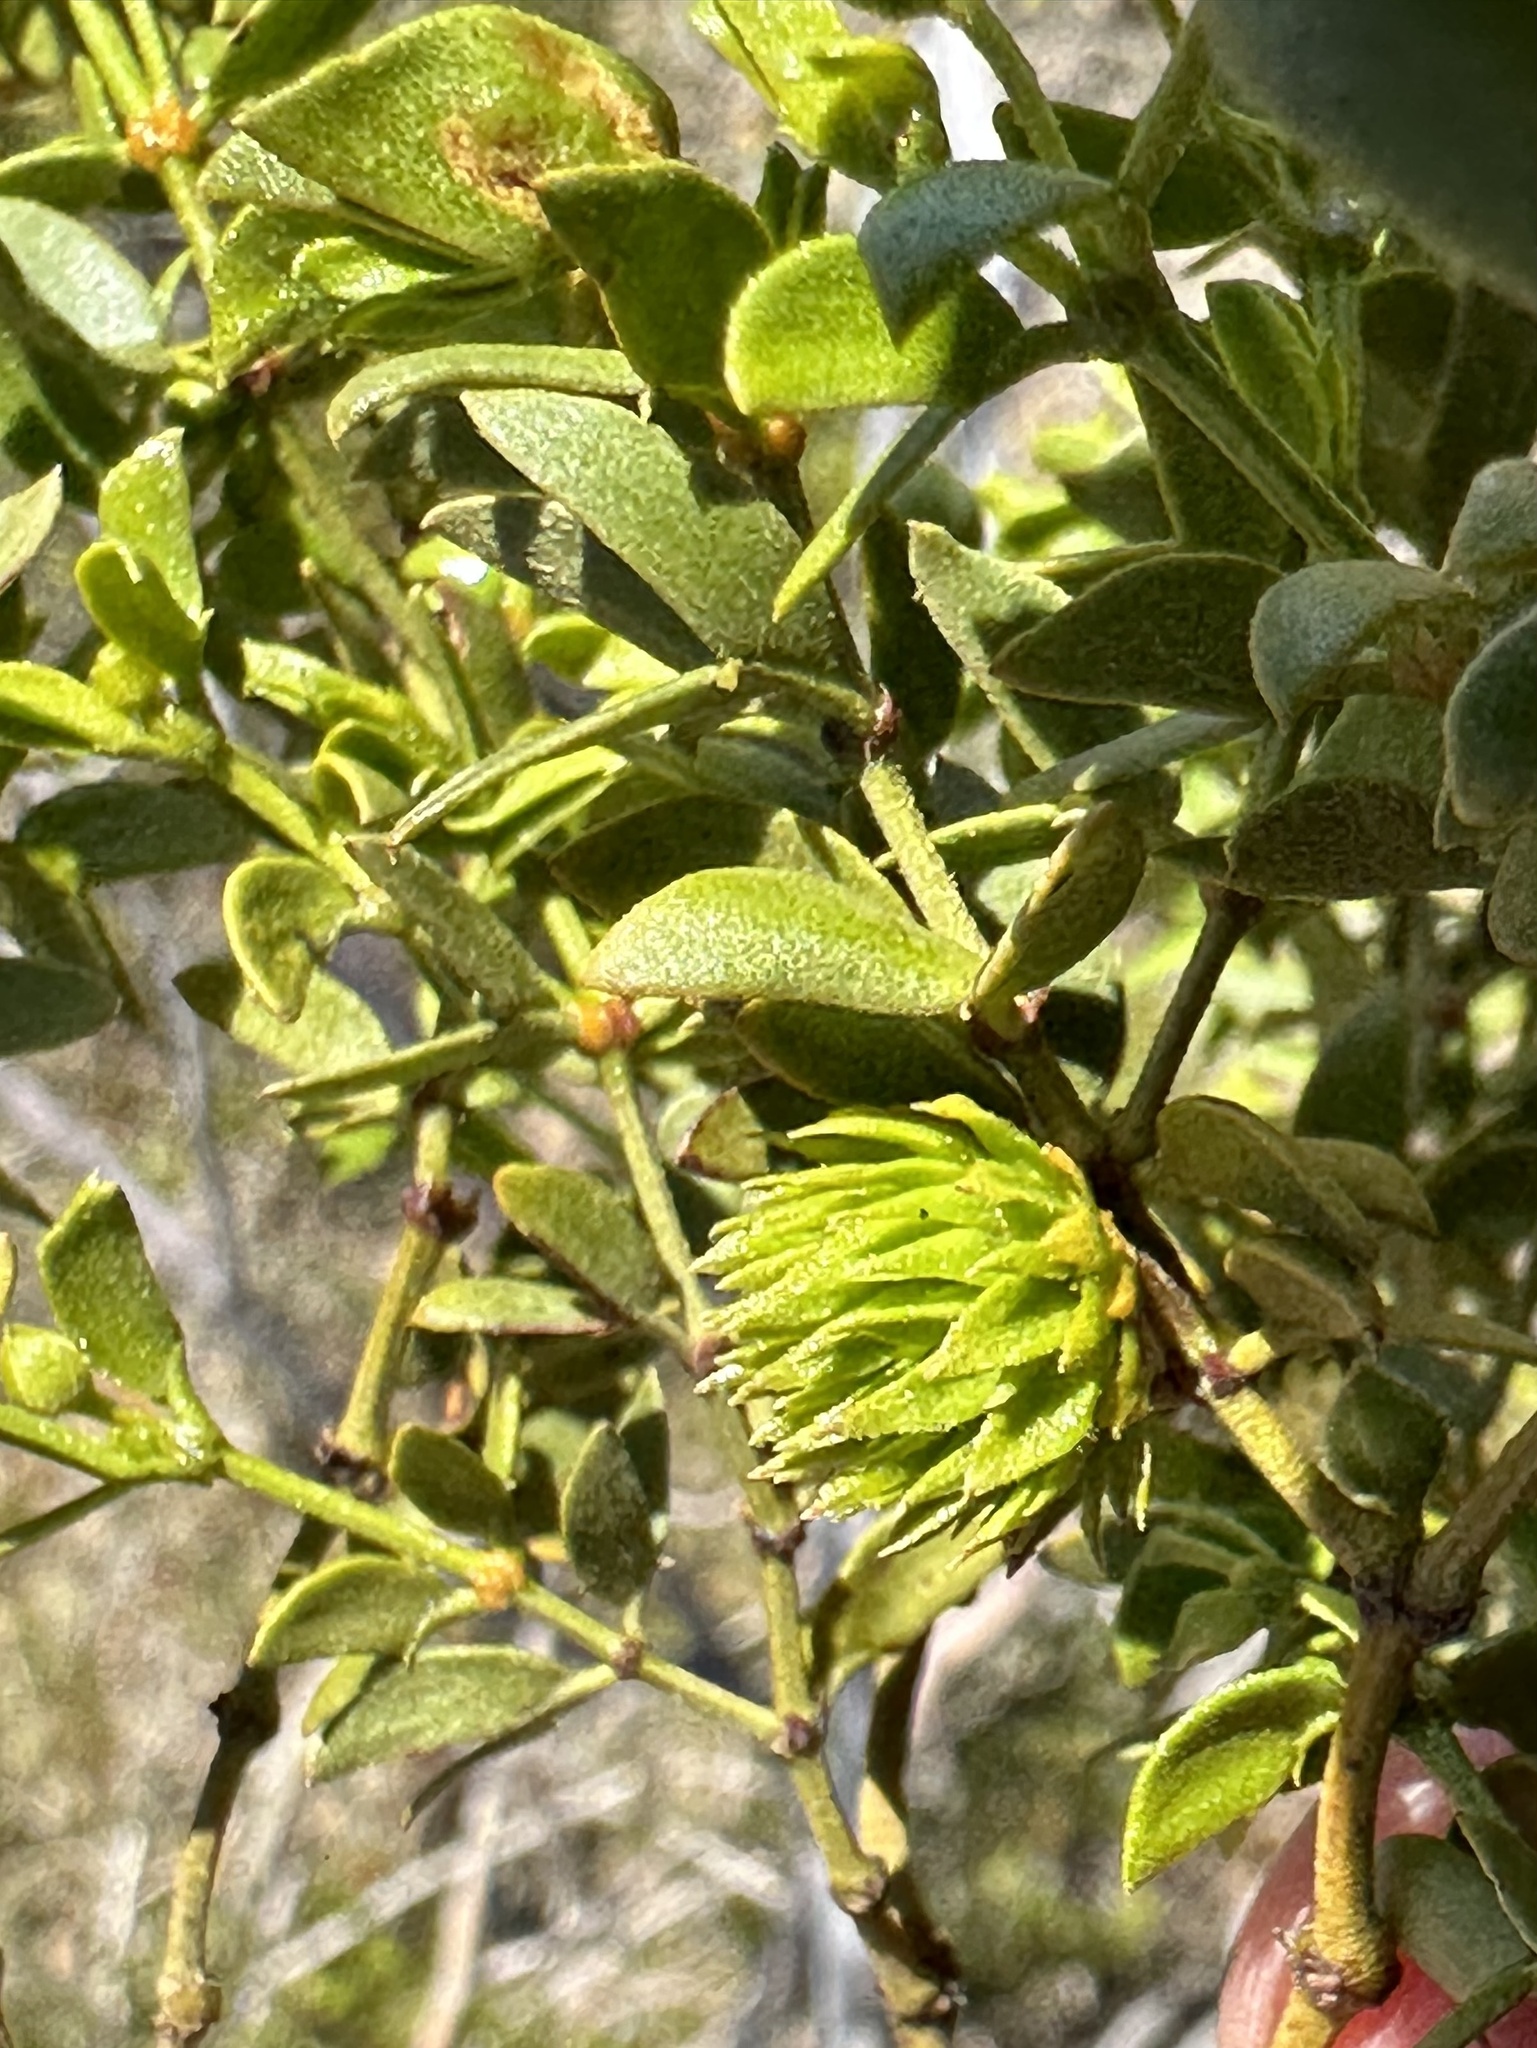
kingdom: Animalia
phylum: Arthropoda
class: Insecta
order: Diptera
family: Cecidomyiidae
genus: Asphondylia
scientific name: Asphondylia foliosa
